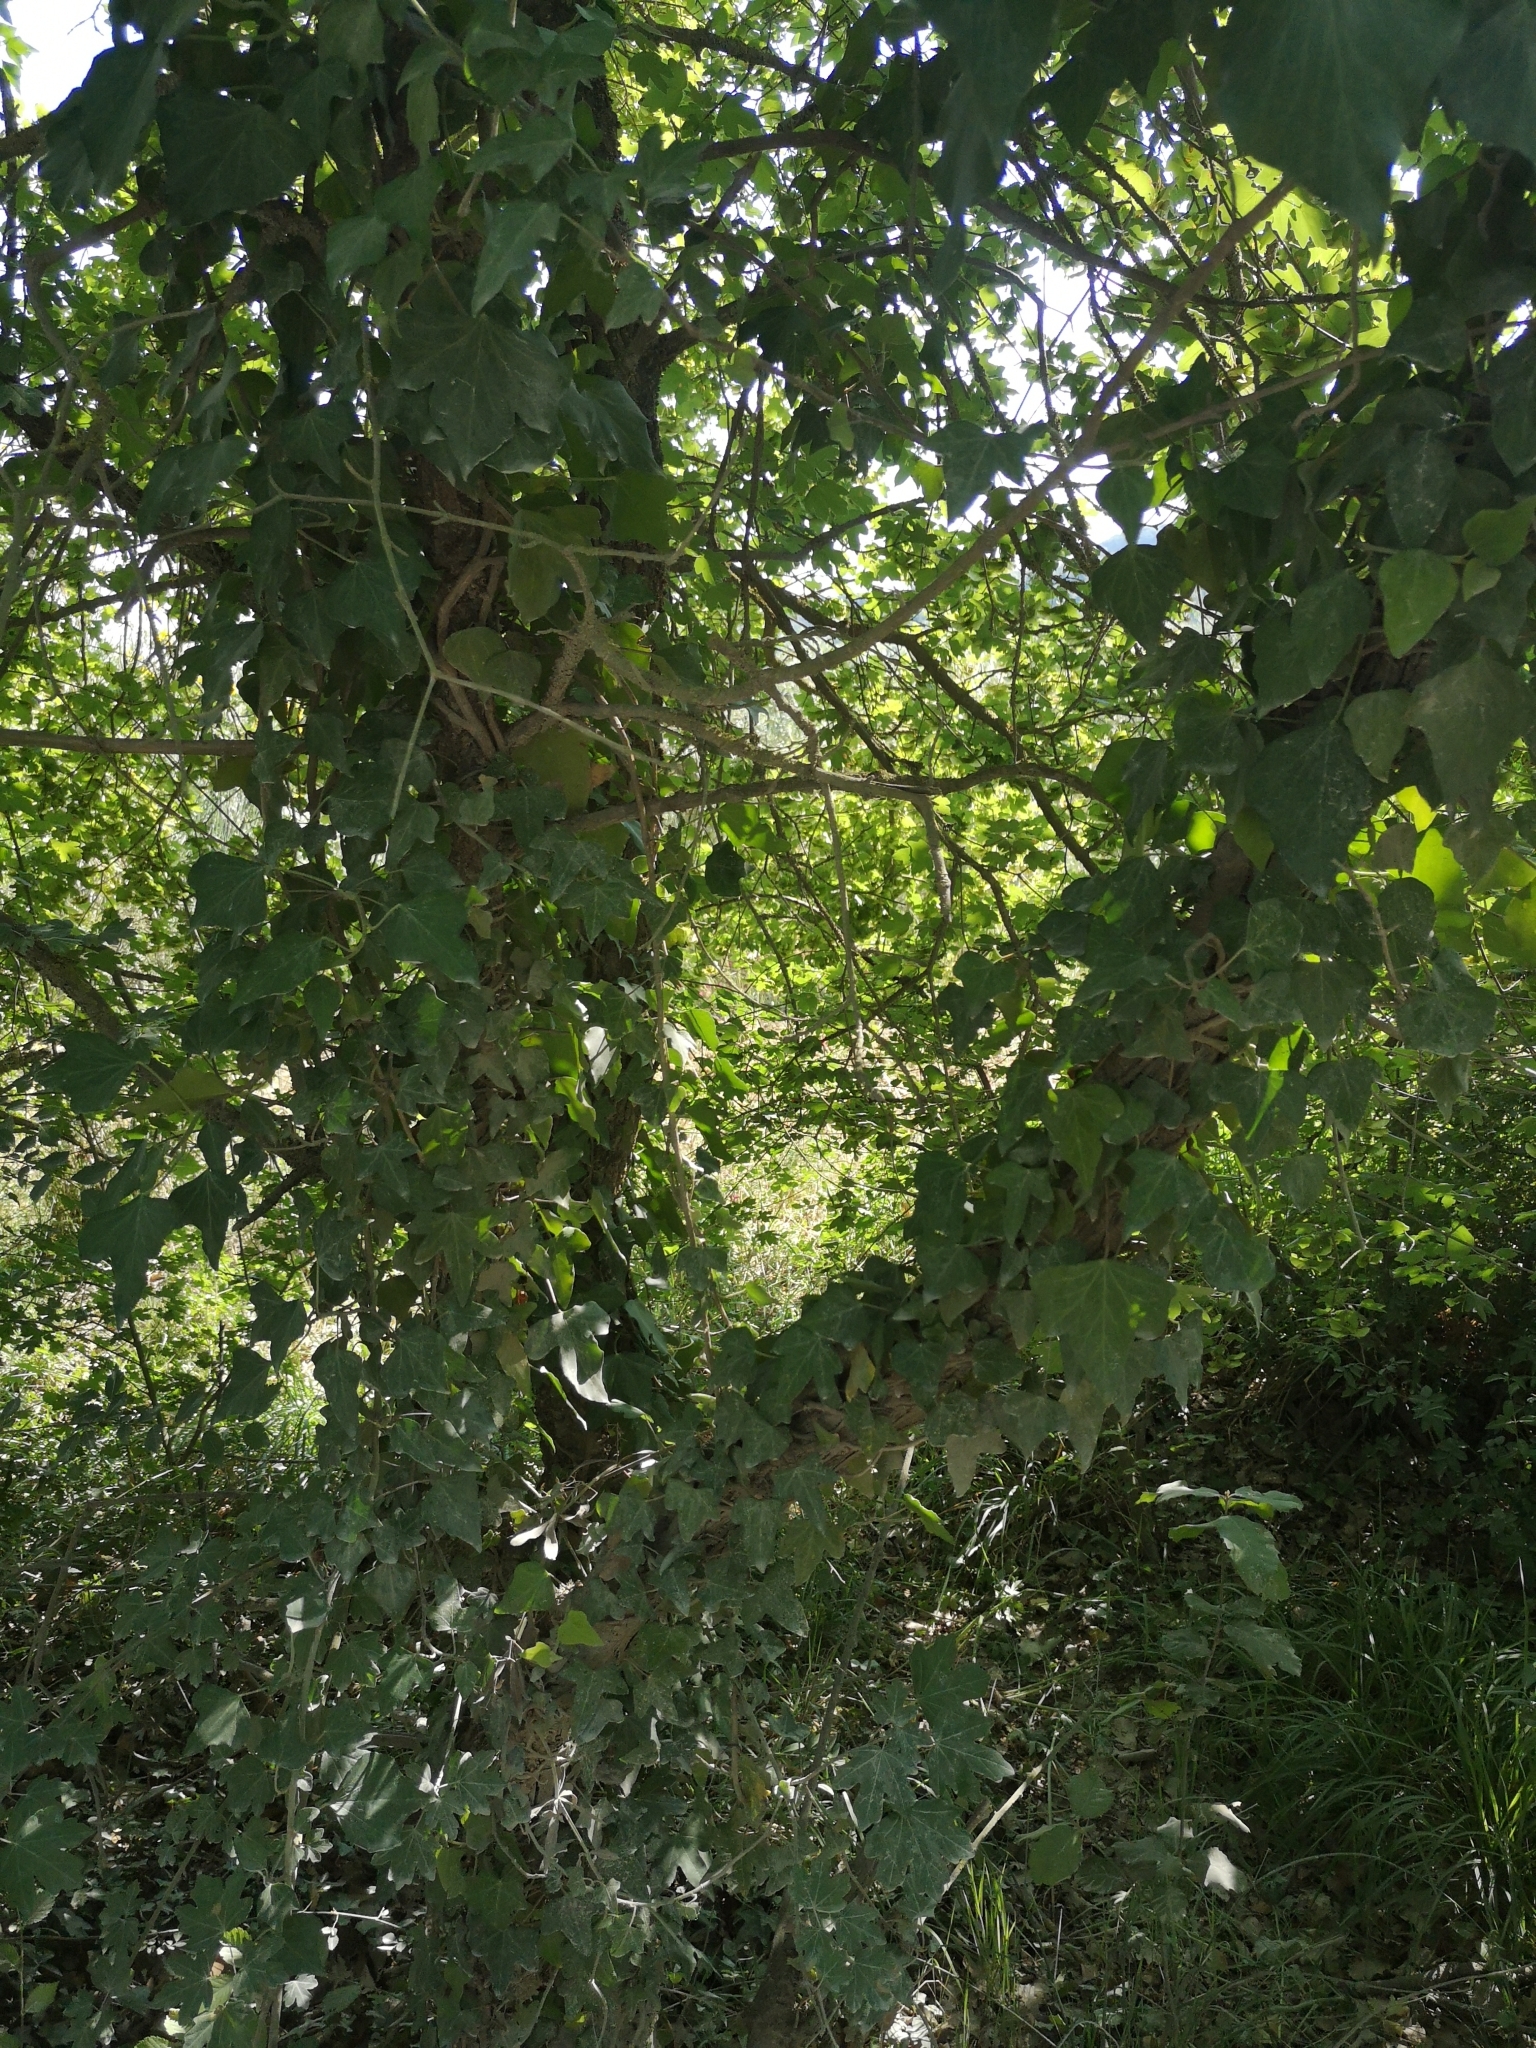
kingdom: Plantae
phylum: Tracheophyta
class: Magnoliopsida
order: Apiales
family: Araliaceae
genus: Hedera
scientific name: Hedera helix
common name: Ivy
